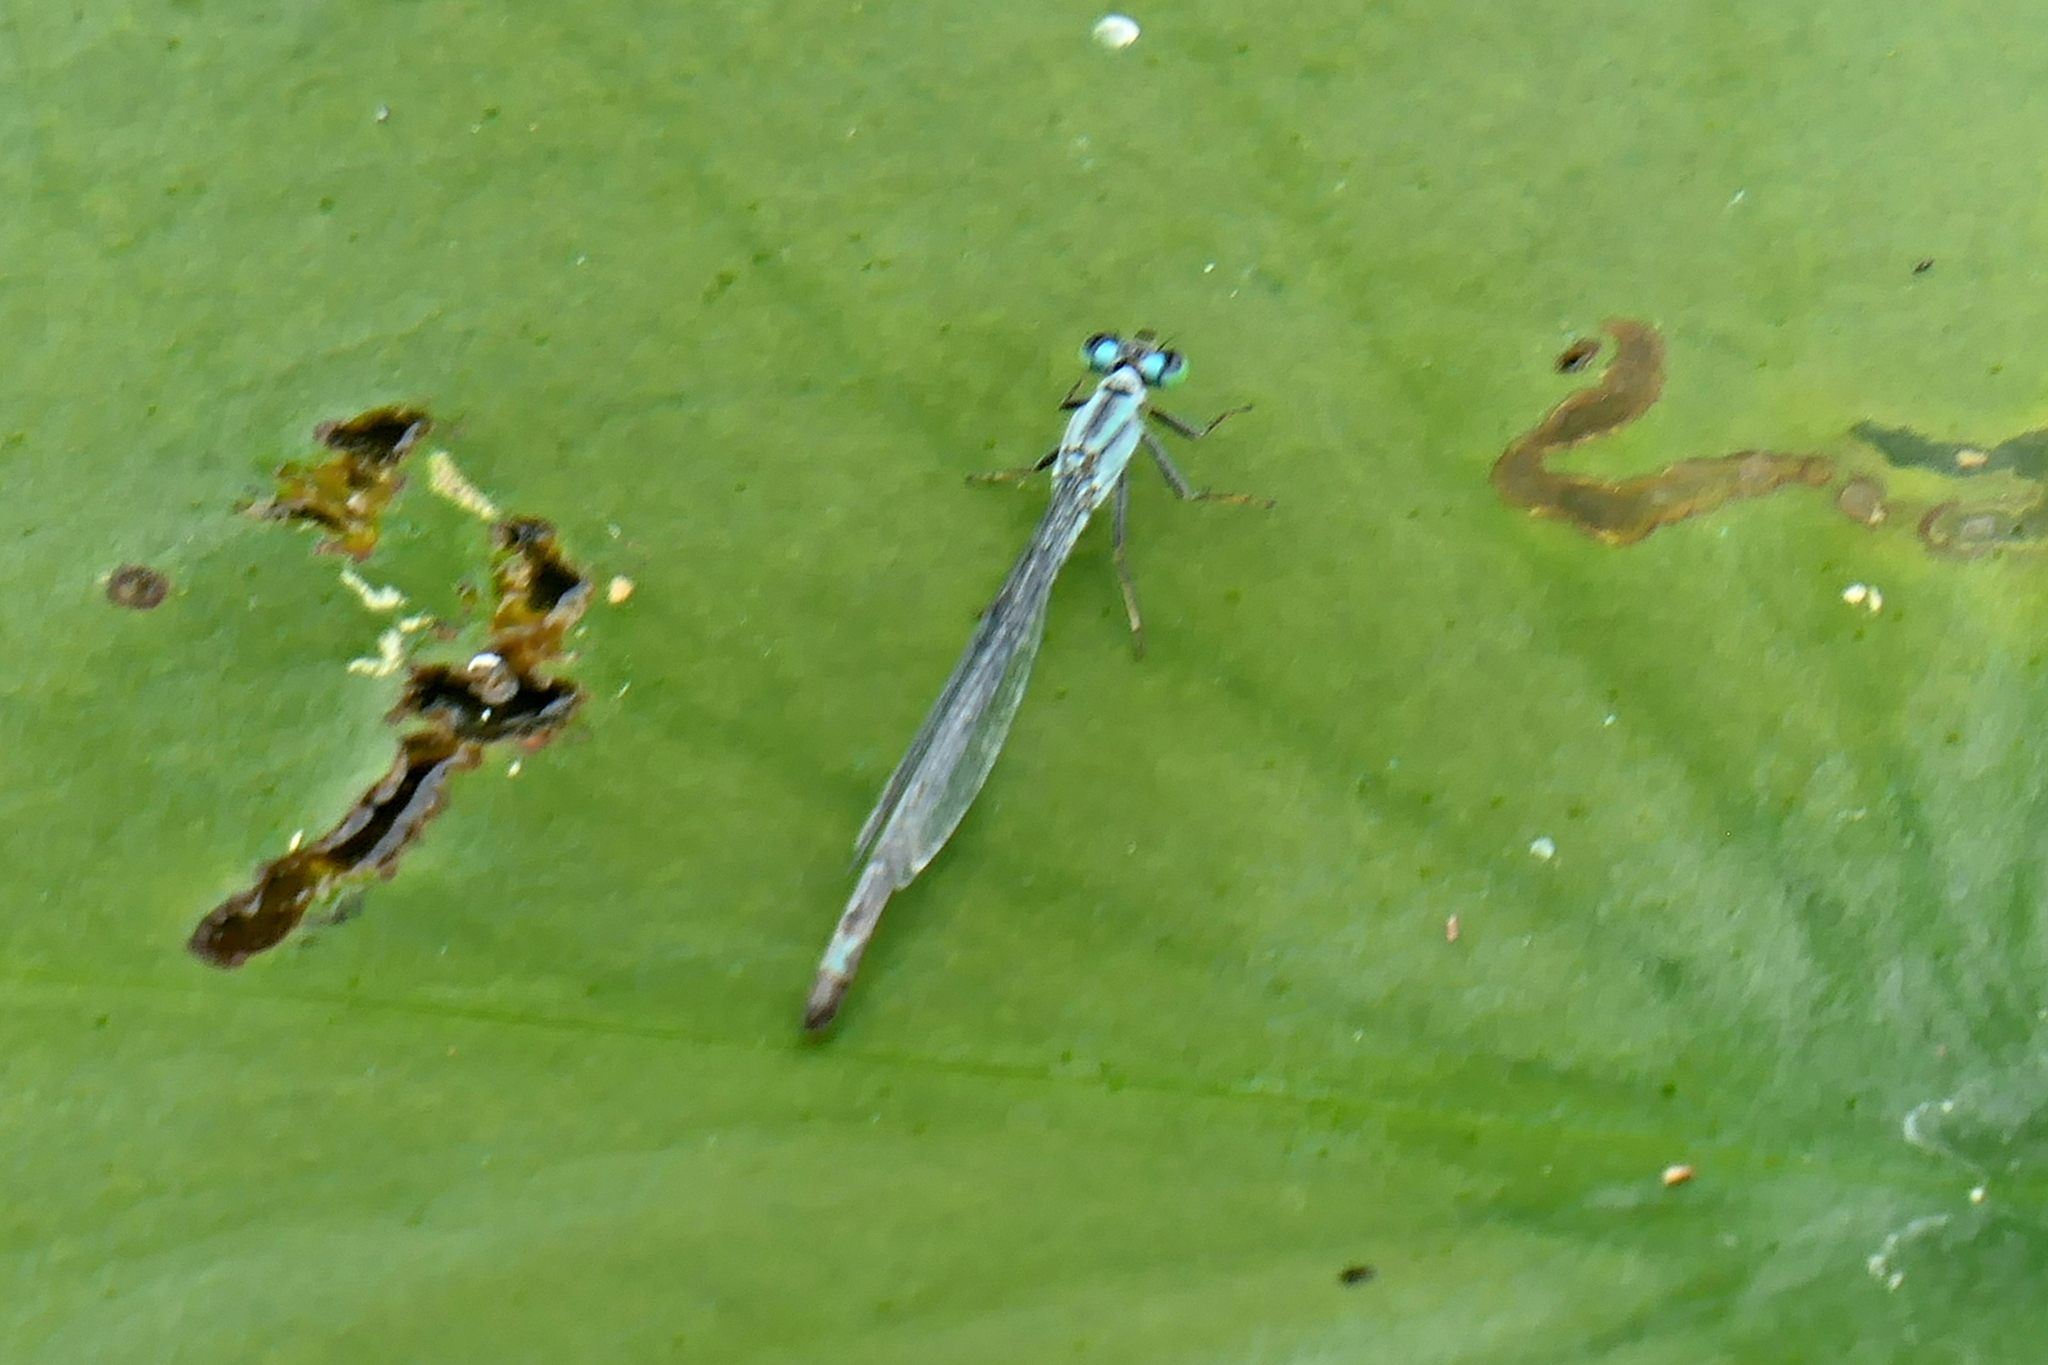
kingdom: Animalia
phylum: Arthropoda
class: Insecta
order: Odonata
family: Coenagrionidae
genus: Ischnura
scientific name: Ischnura kellicotti
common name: Lilypad forktail
